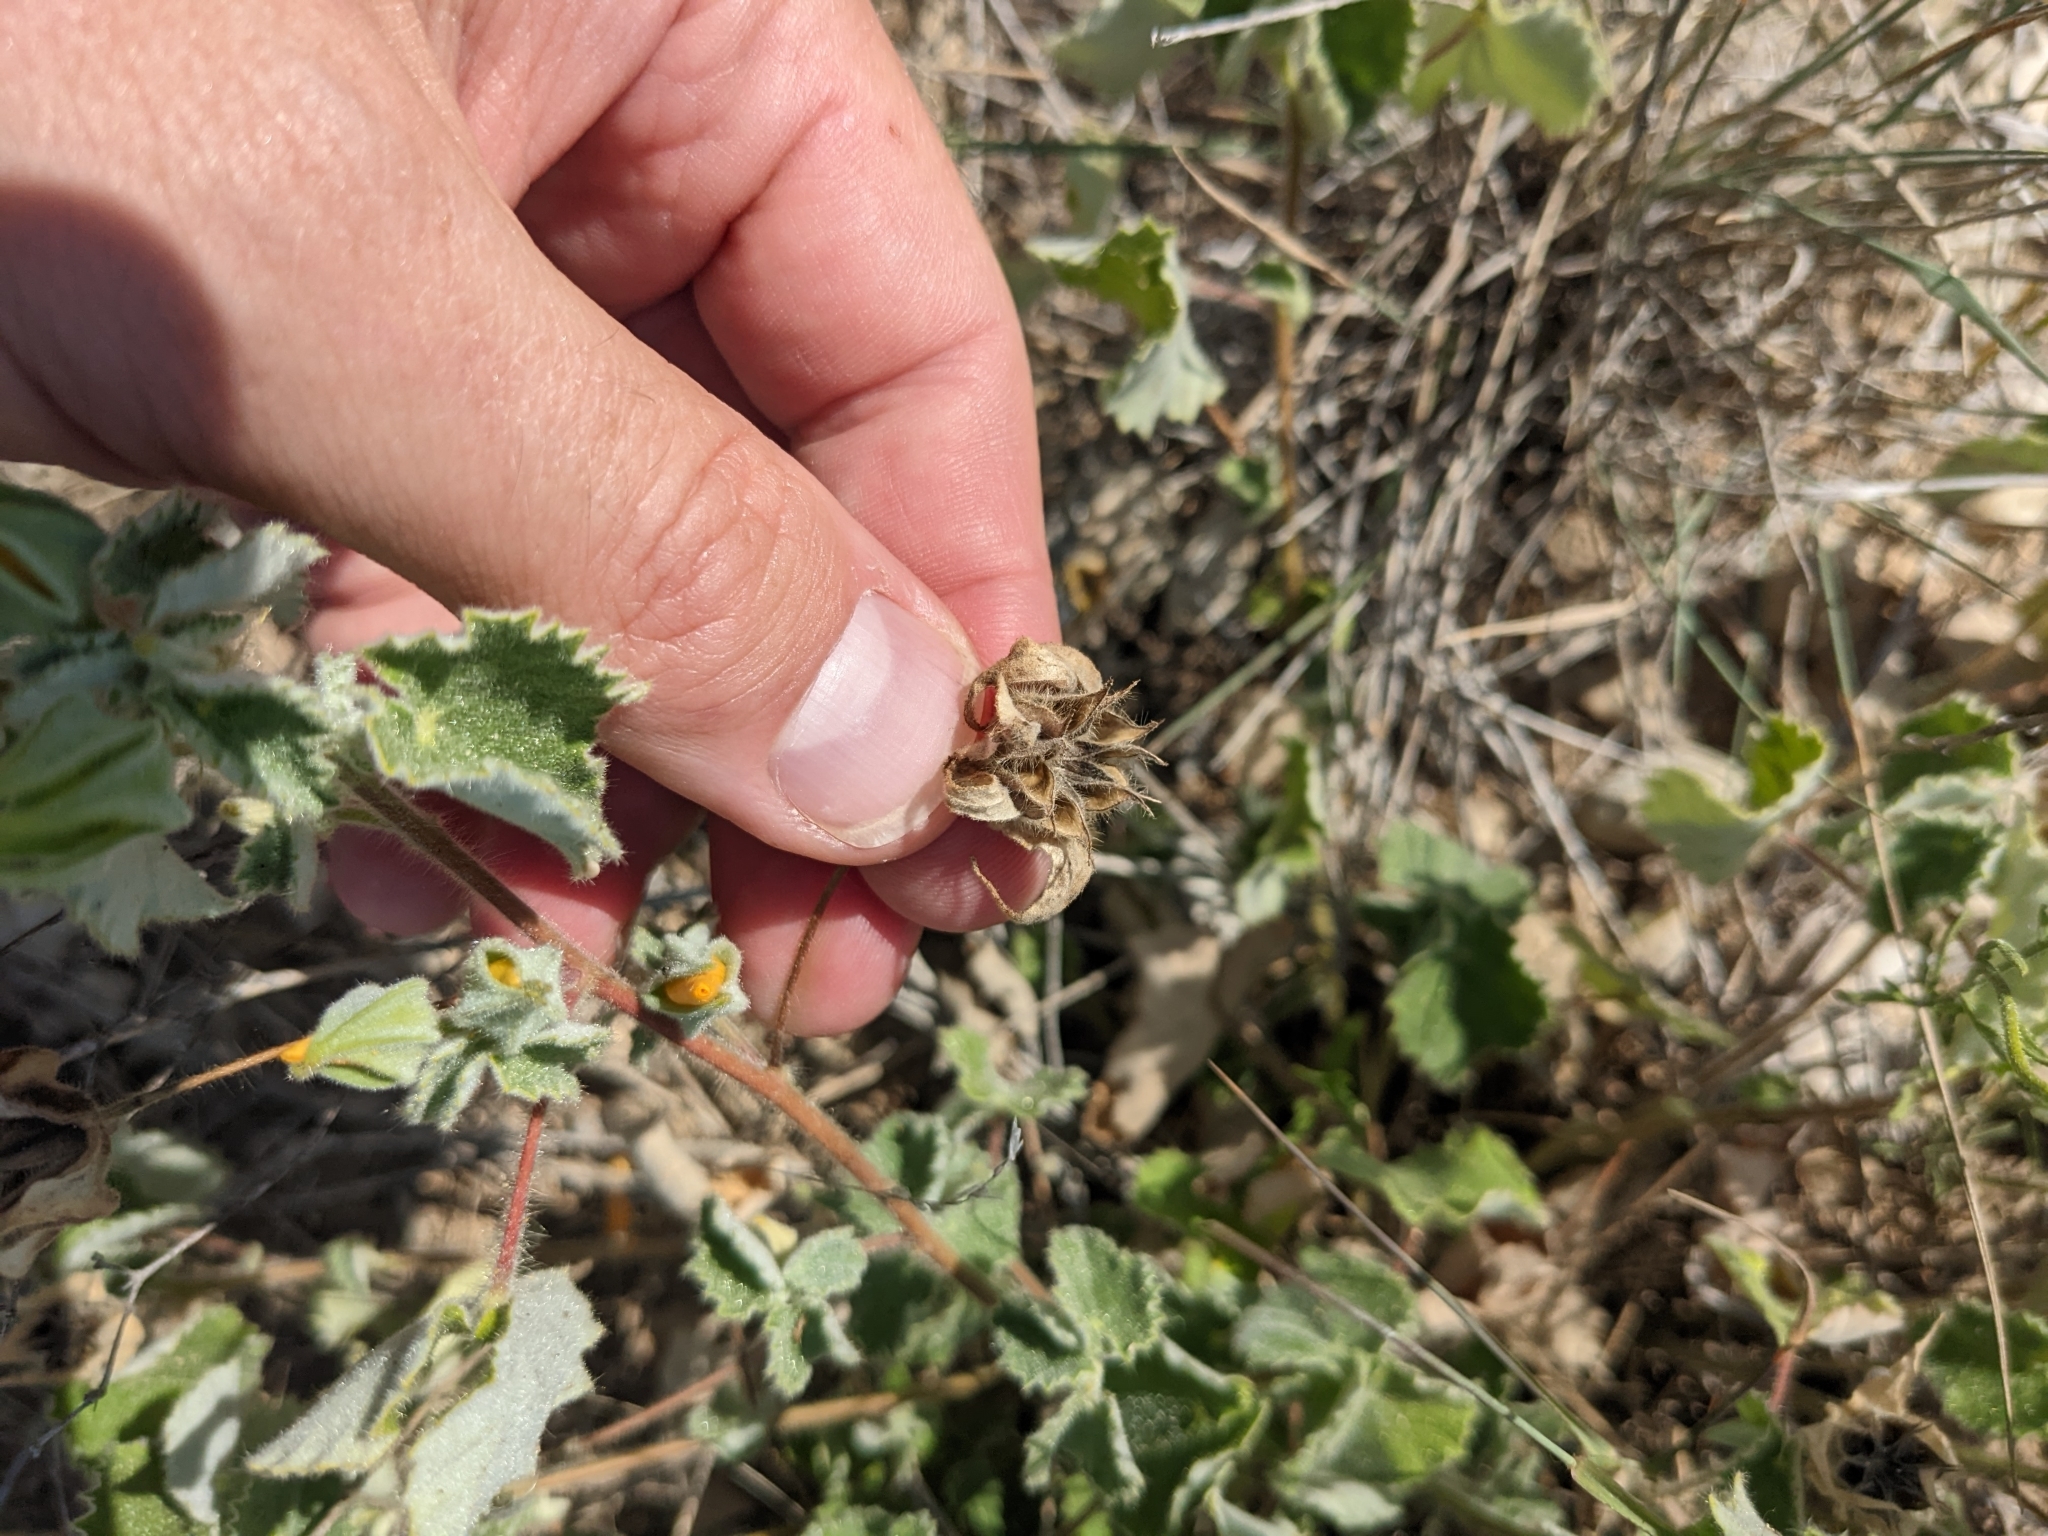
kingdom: Plantae
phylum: Tracheophyta
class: Magnoliopsida
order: Malvales
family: Malvaceae
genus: Abutilon
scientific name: Abutilon wrightii
